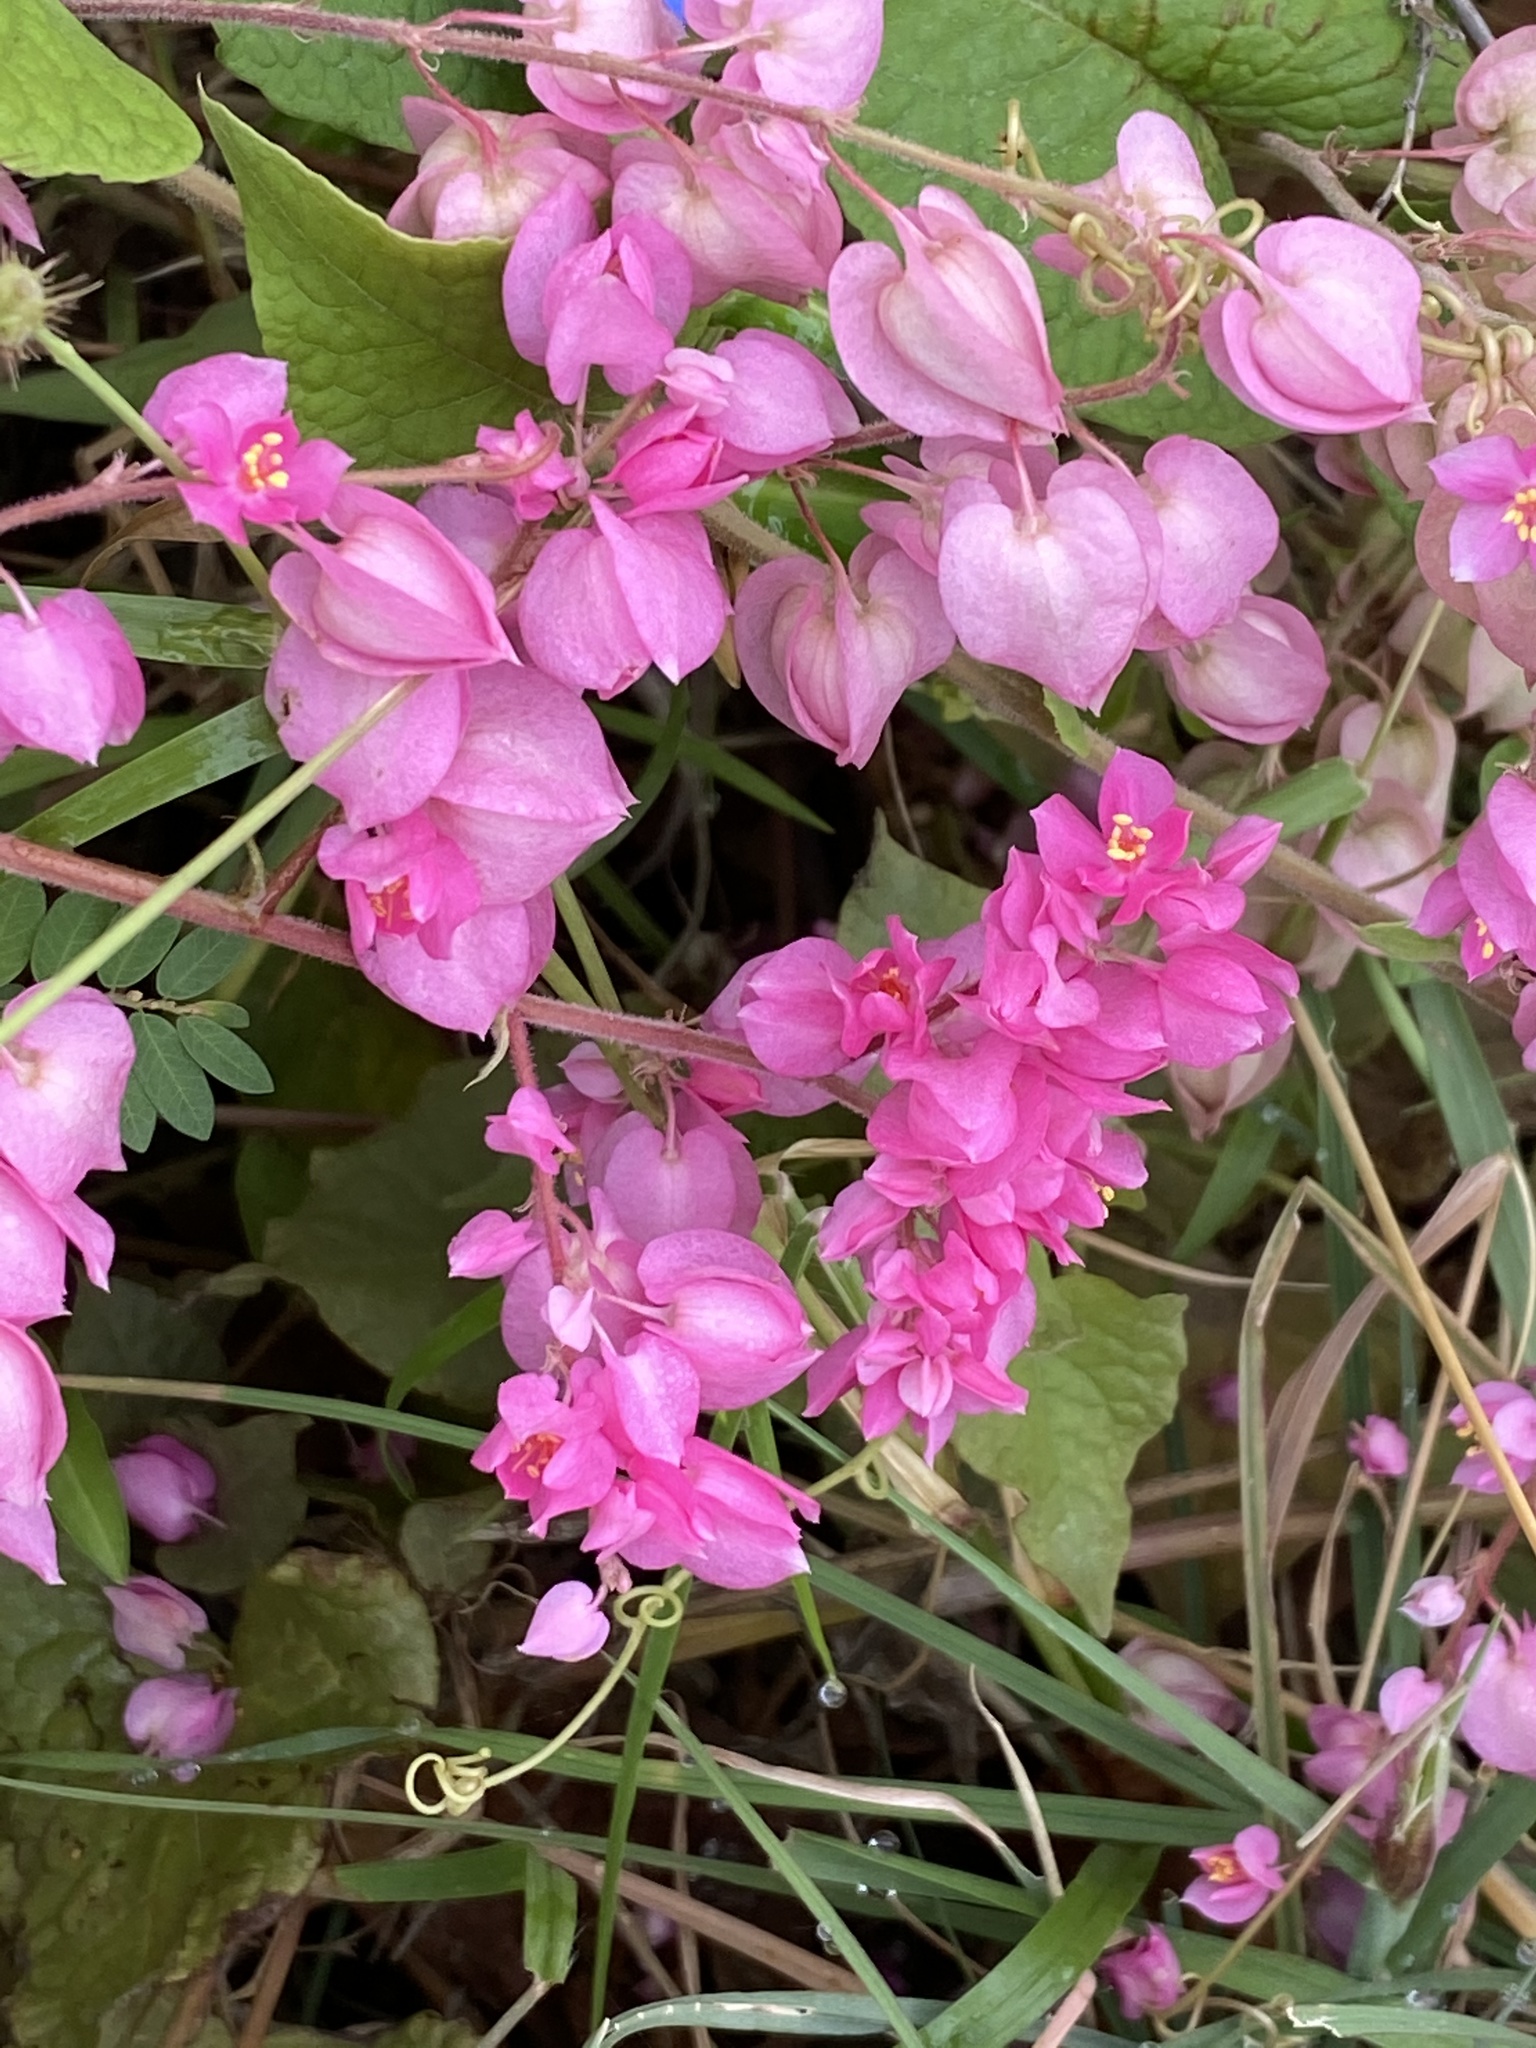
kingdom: Plantae
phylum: Tracheophyta
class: Magnoliopsida
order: Caryophyllales
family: Polygonaceae
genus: Antigonon
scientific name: Antigonon leptopus
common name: Coral vine
